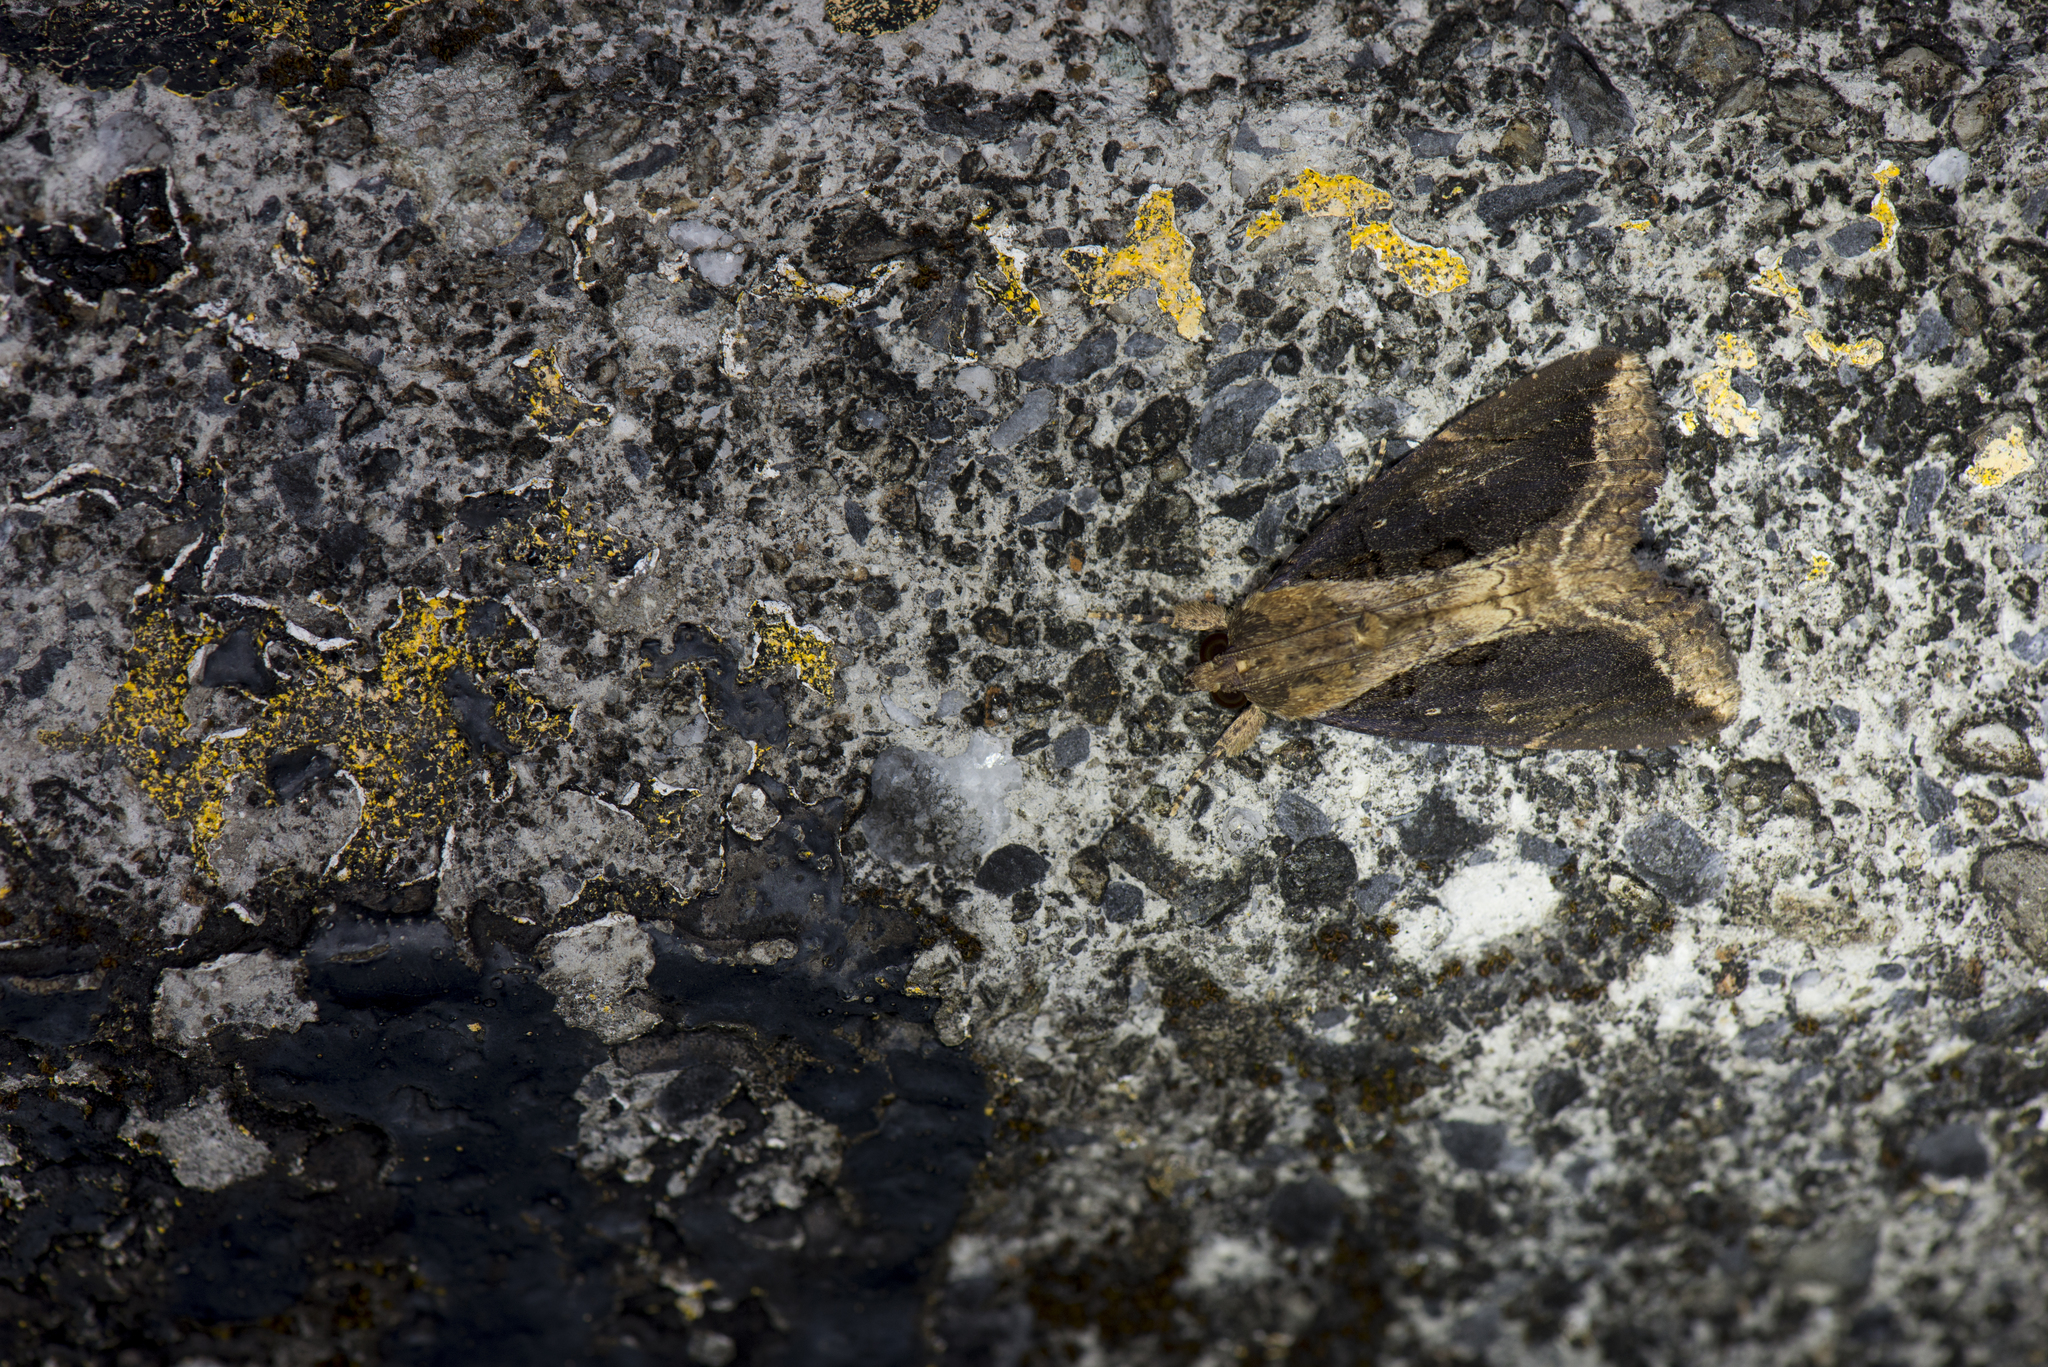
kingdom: Animalia
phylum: Arthropoda
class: Insecta
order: Lepidoptera
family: Erebidae
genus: Ercheia
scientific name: Ercheia umbrosa
